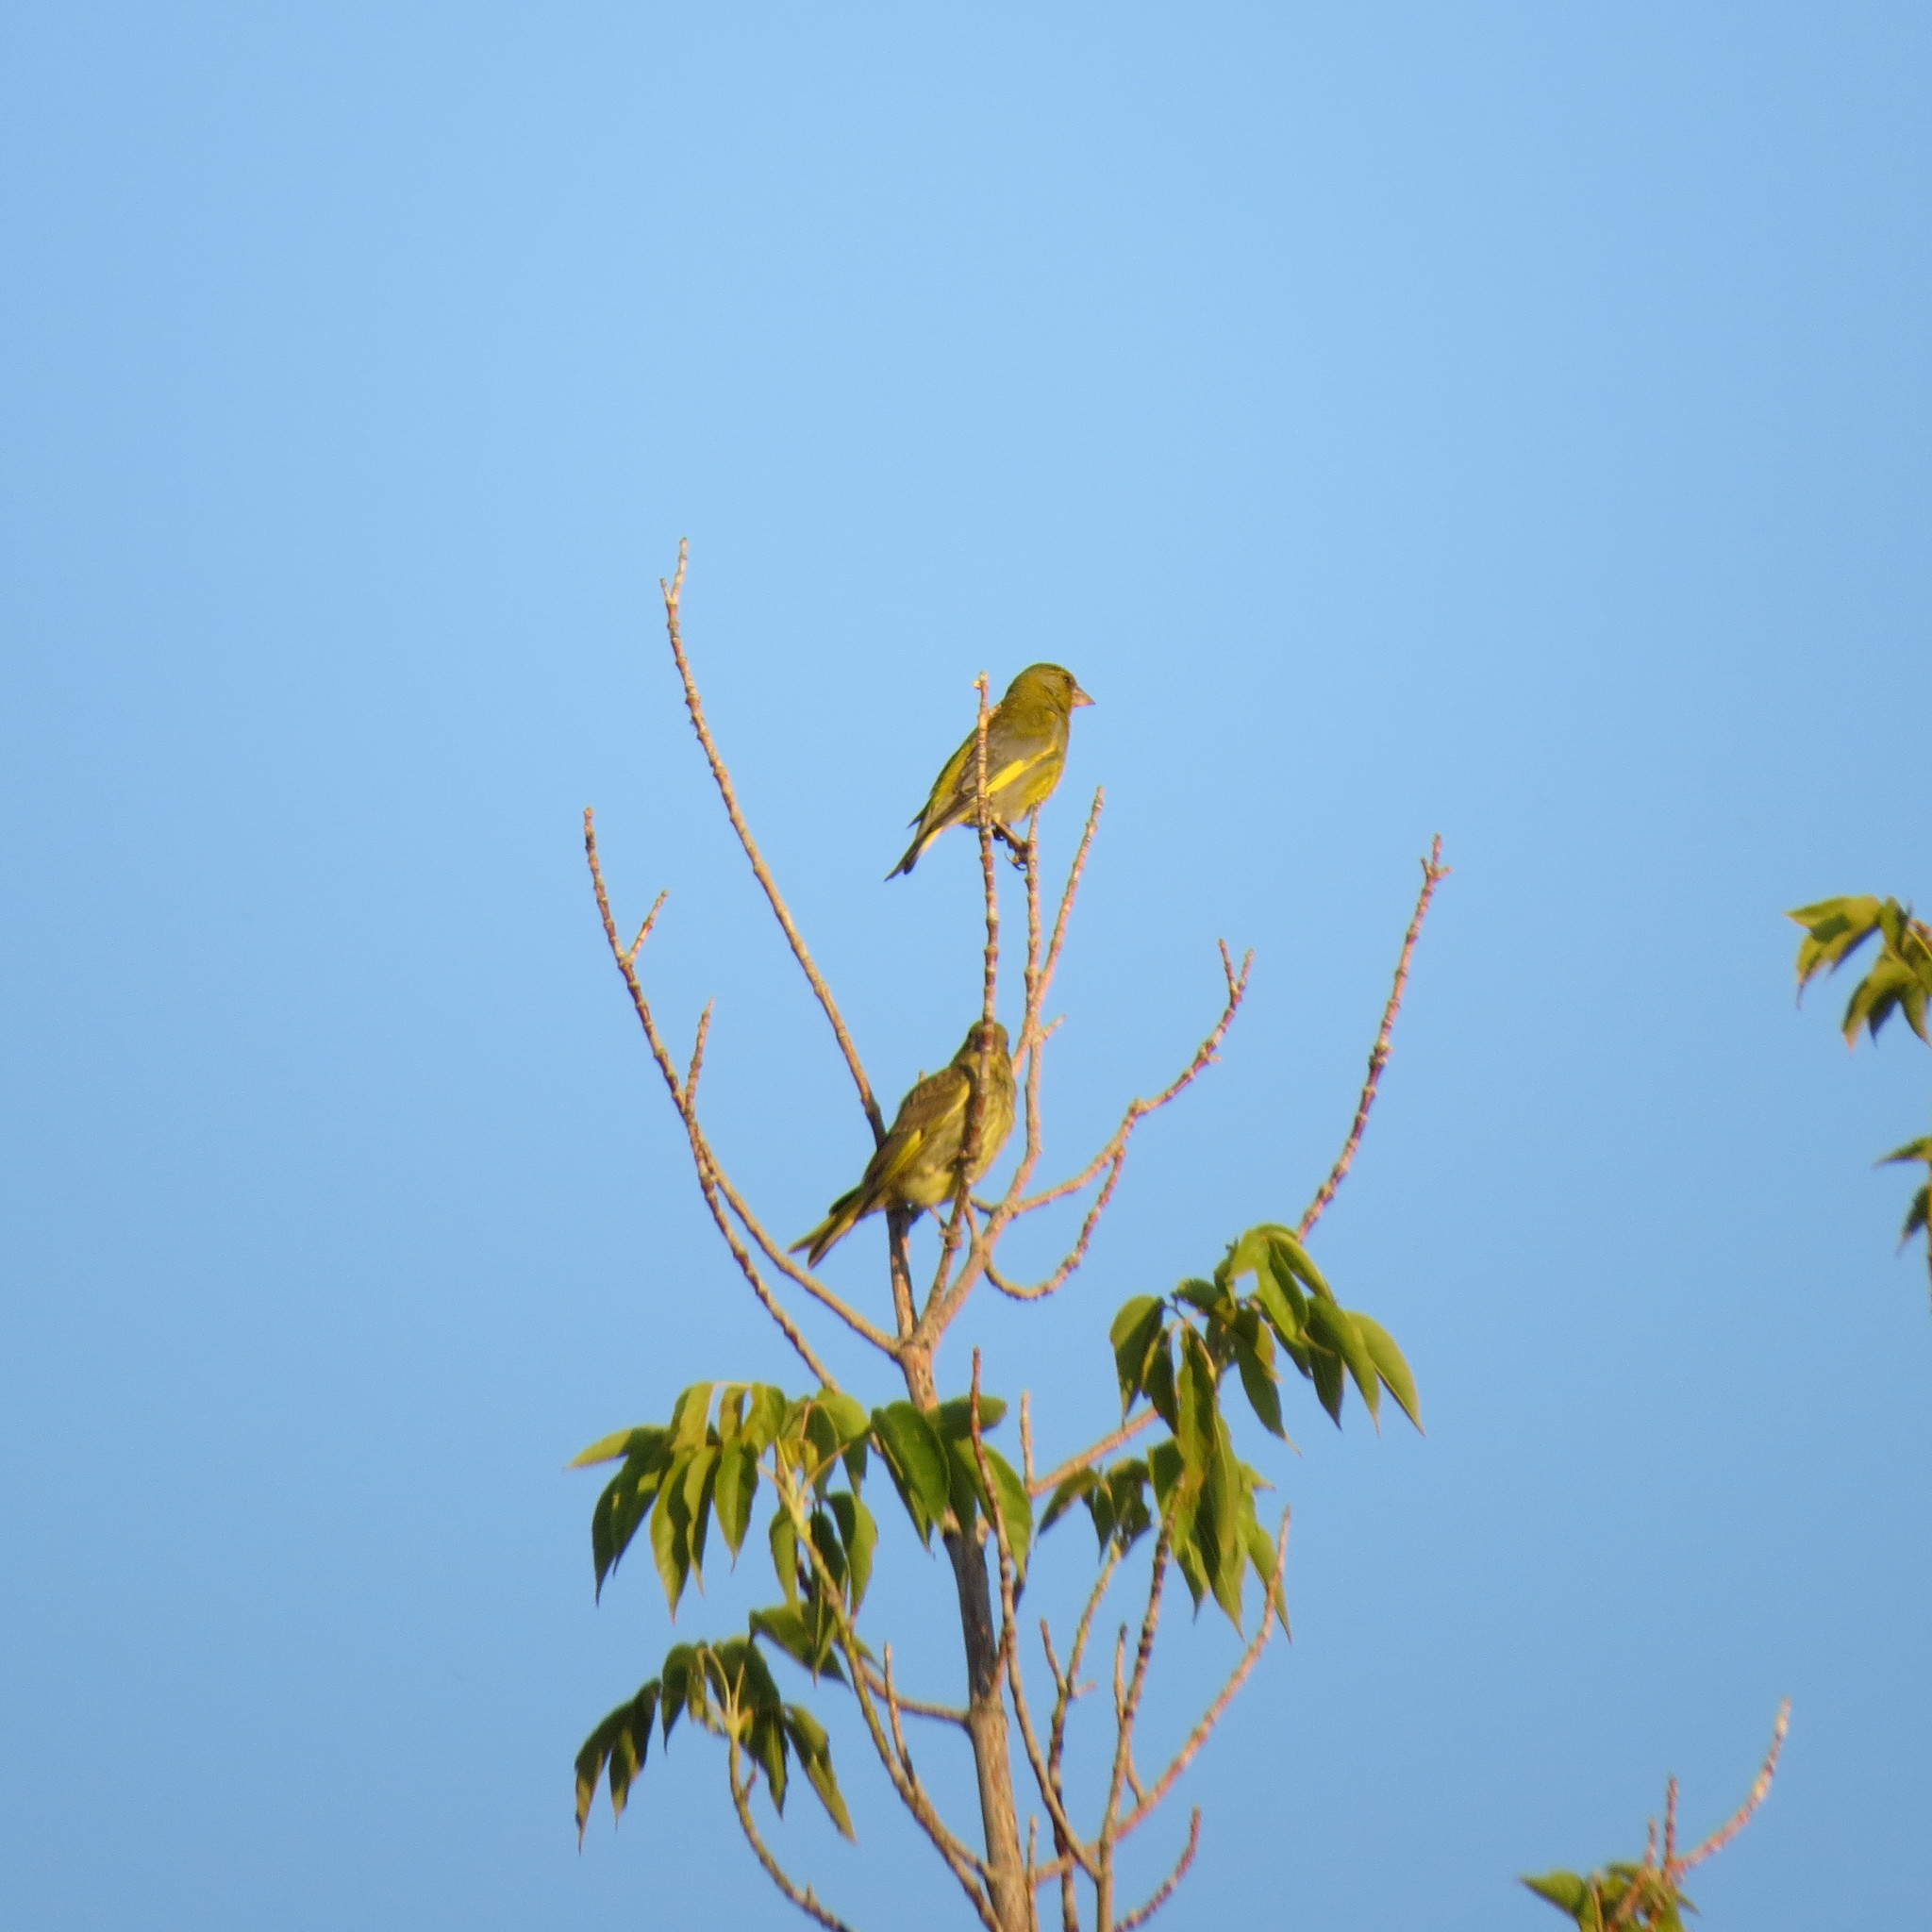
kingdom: Plantae
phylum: Tracheophyta
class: Liliopsida
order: Poales
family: Poaceae
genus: Chloris
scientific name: Chloris chloris
